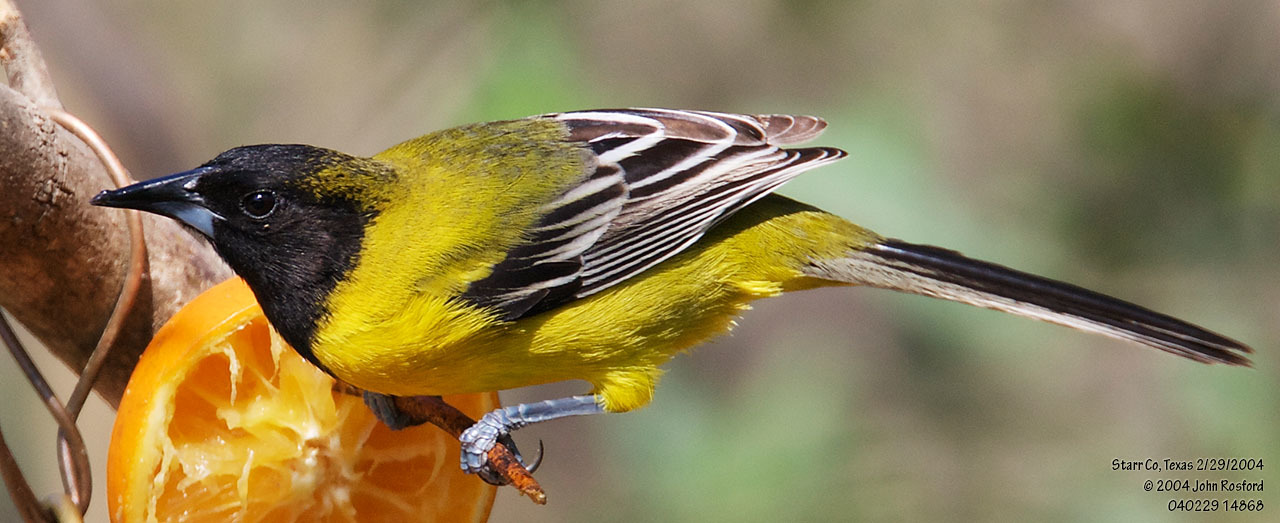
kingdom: Animalia
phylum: Chordata
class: Aves
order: Passeriformes
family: Icteridae
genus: Icterus
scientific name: Icterus graduacauda
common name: Audubon's oriole
